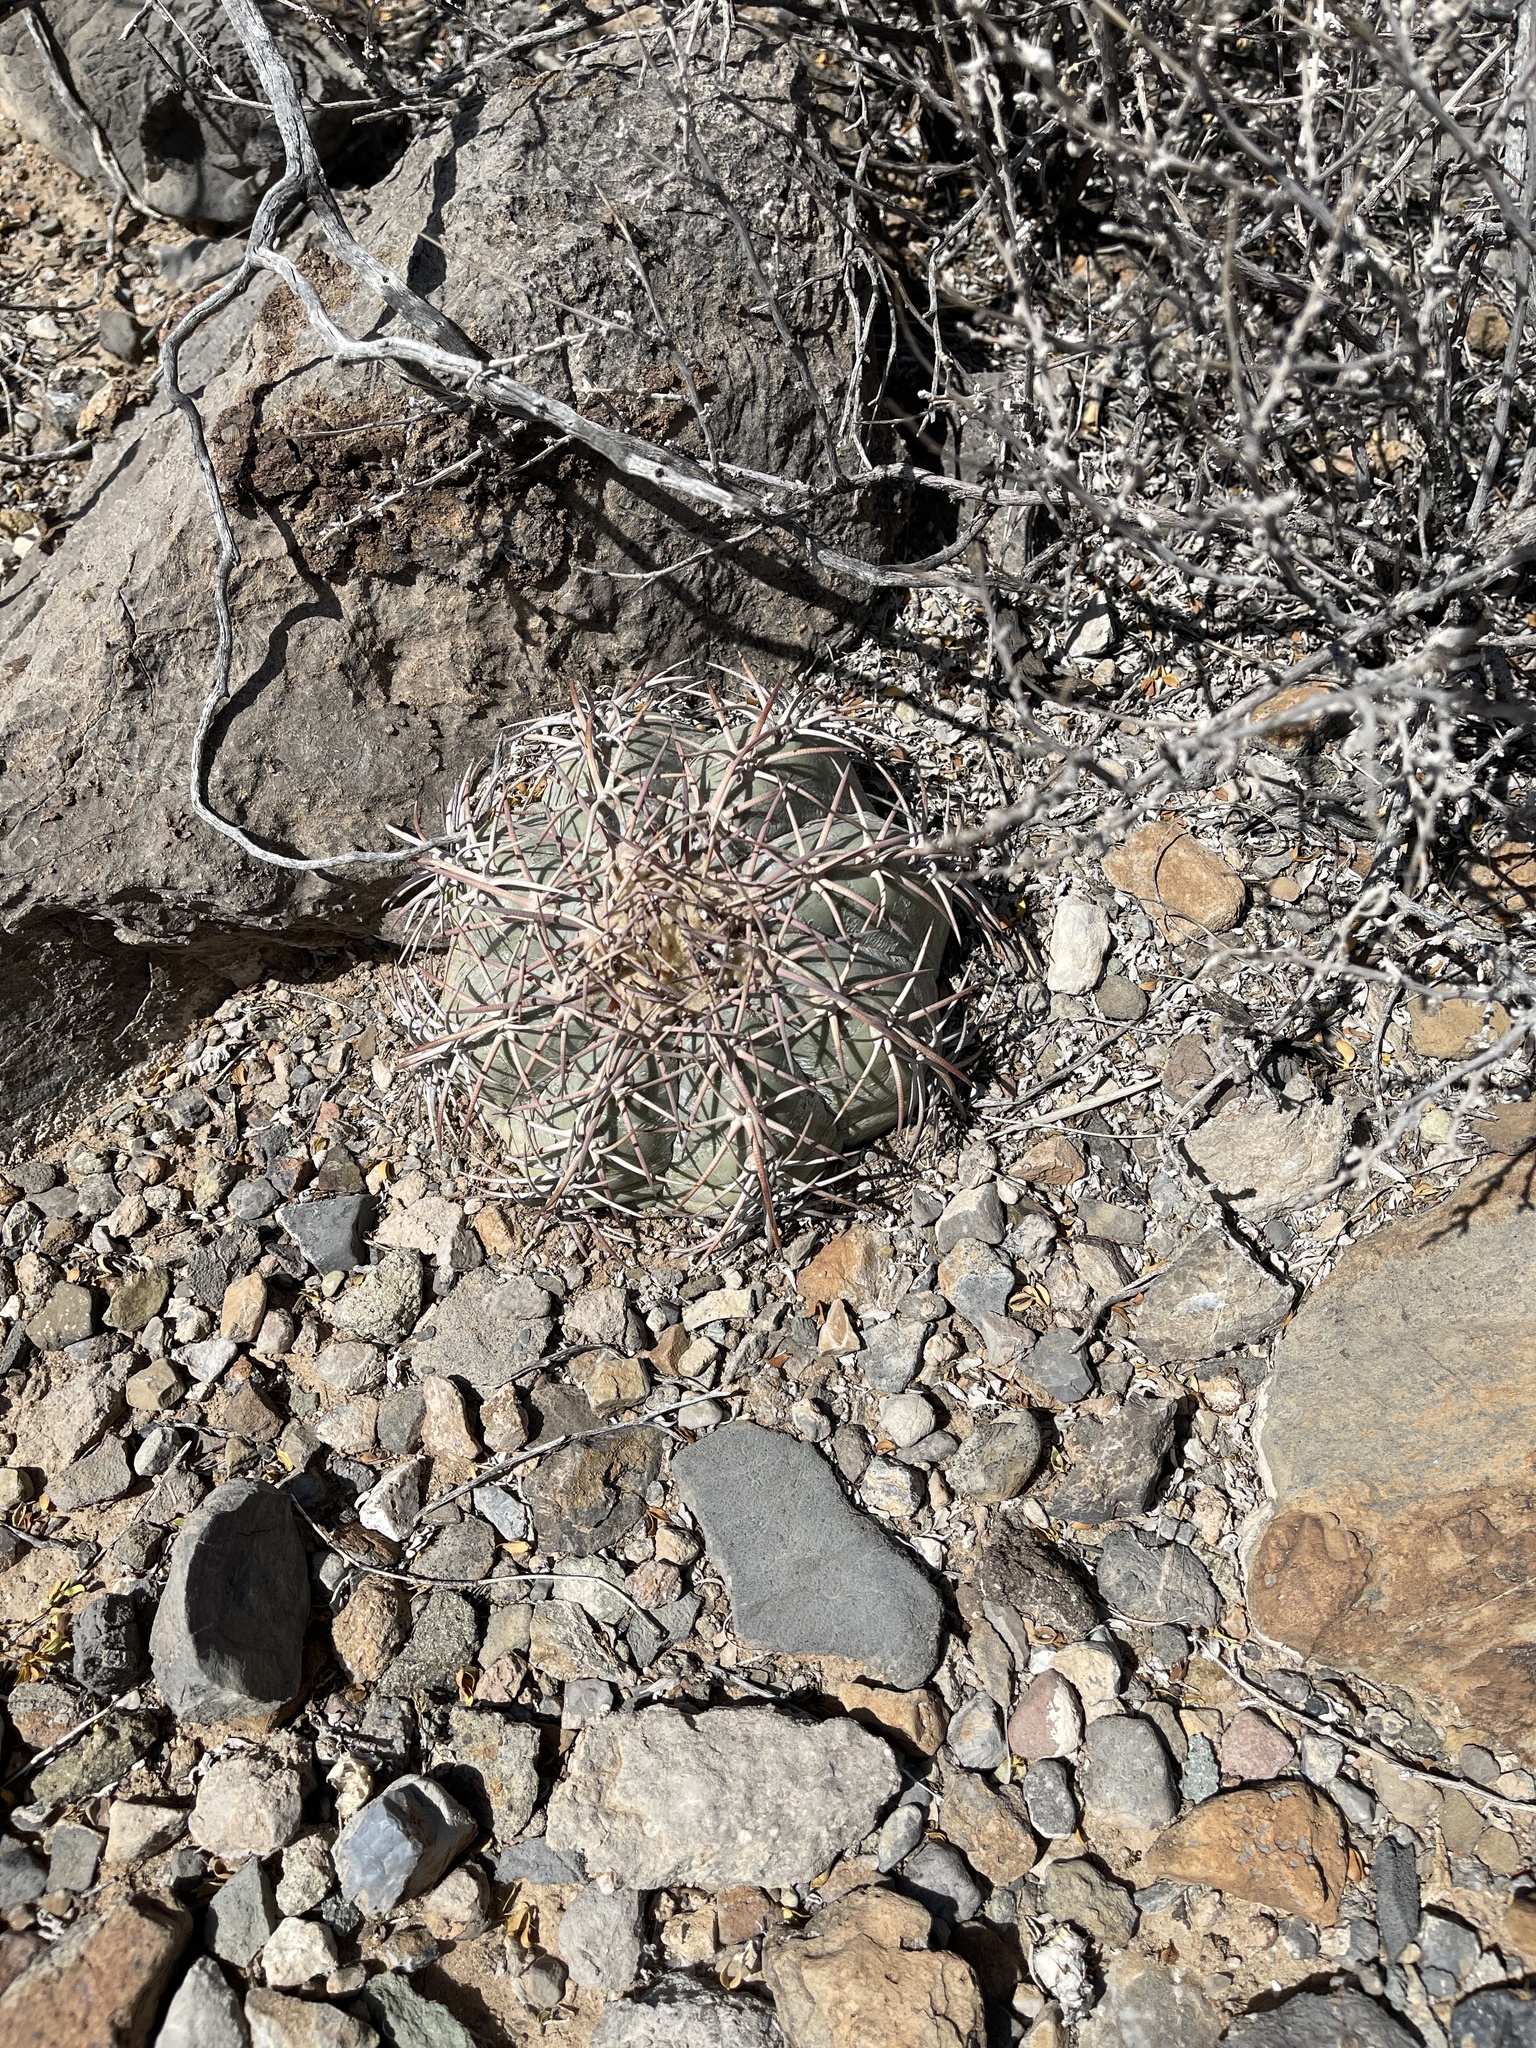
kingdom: Plantae
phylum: Tracheophyta
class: Magnoliopsida
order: Caryophyllales
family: Cactaceae
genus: Echinocactus
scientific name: Echinocactus horizonthalonius
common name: Devilshead
